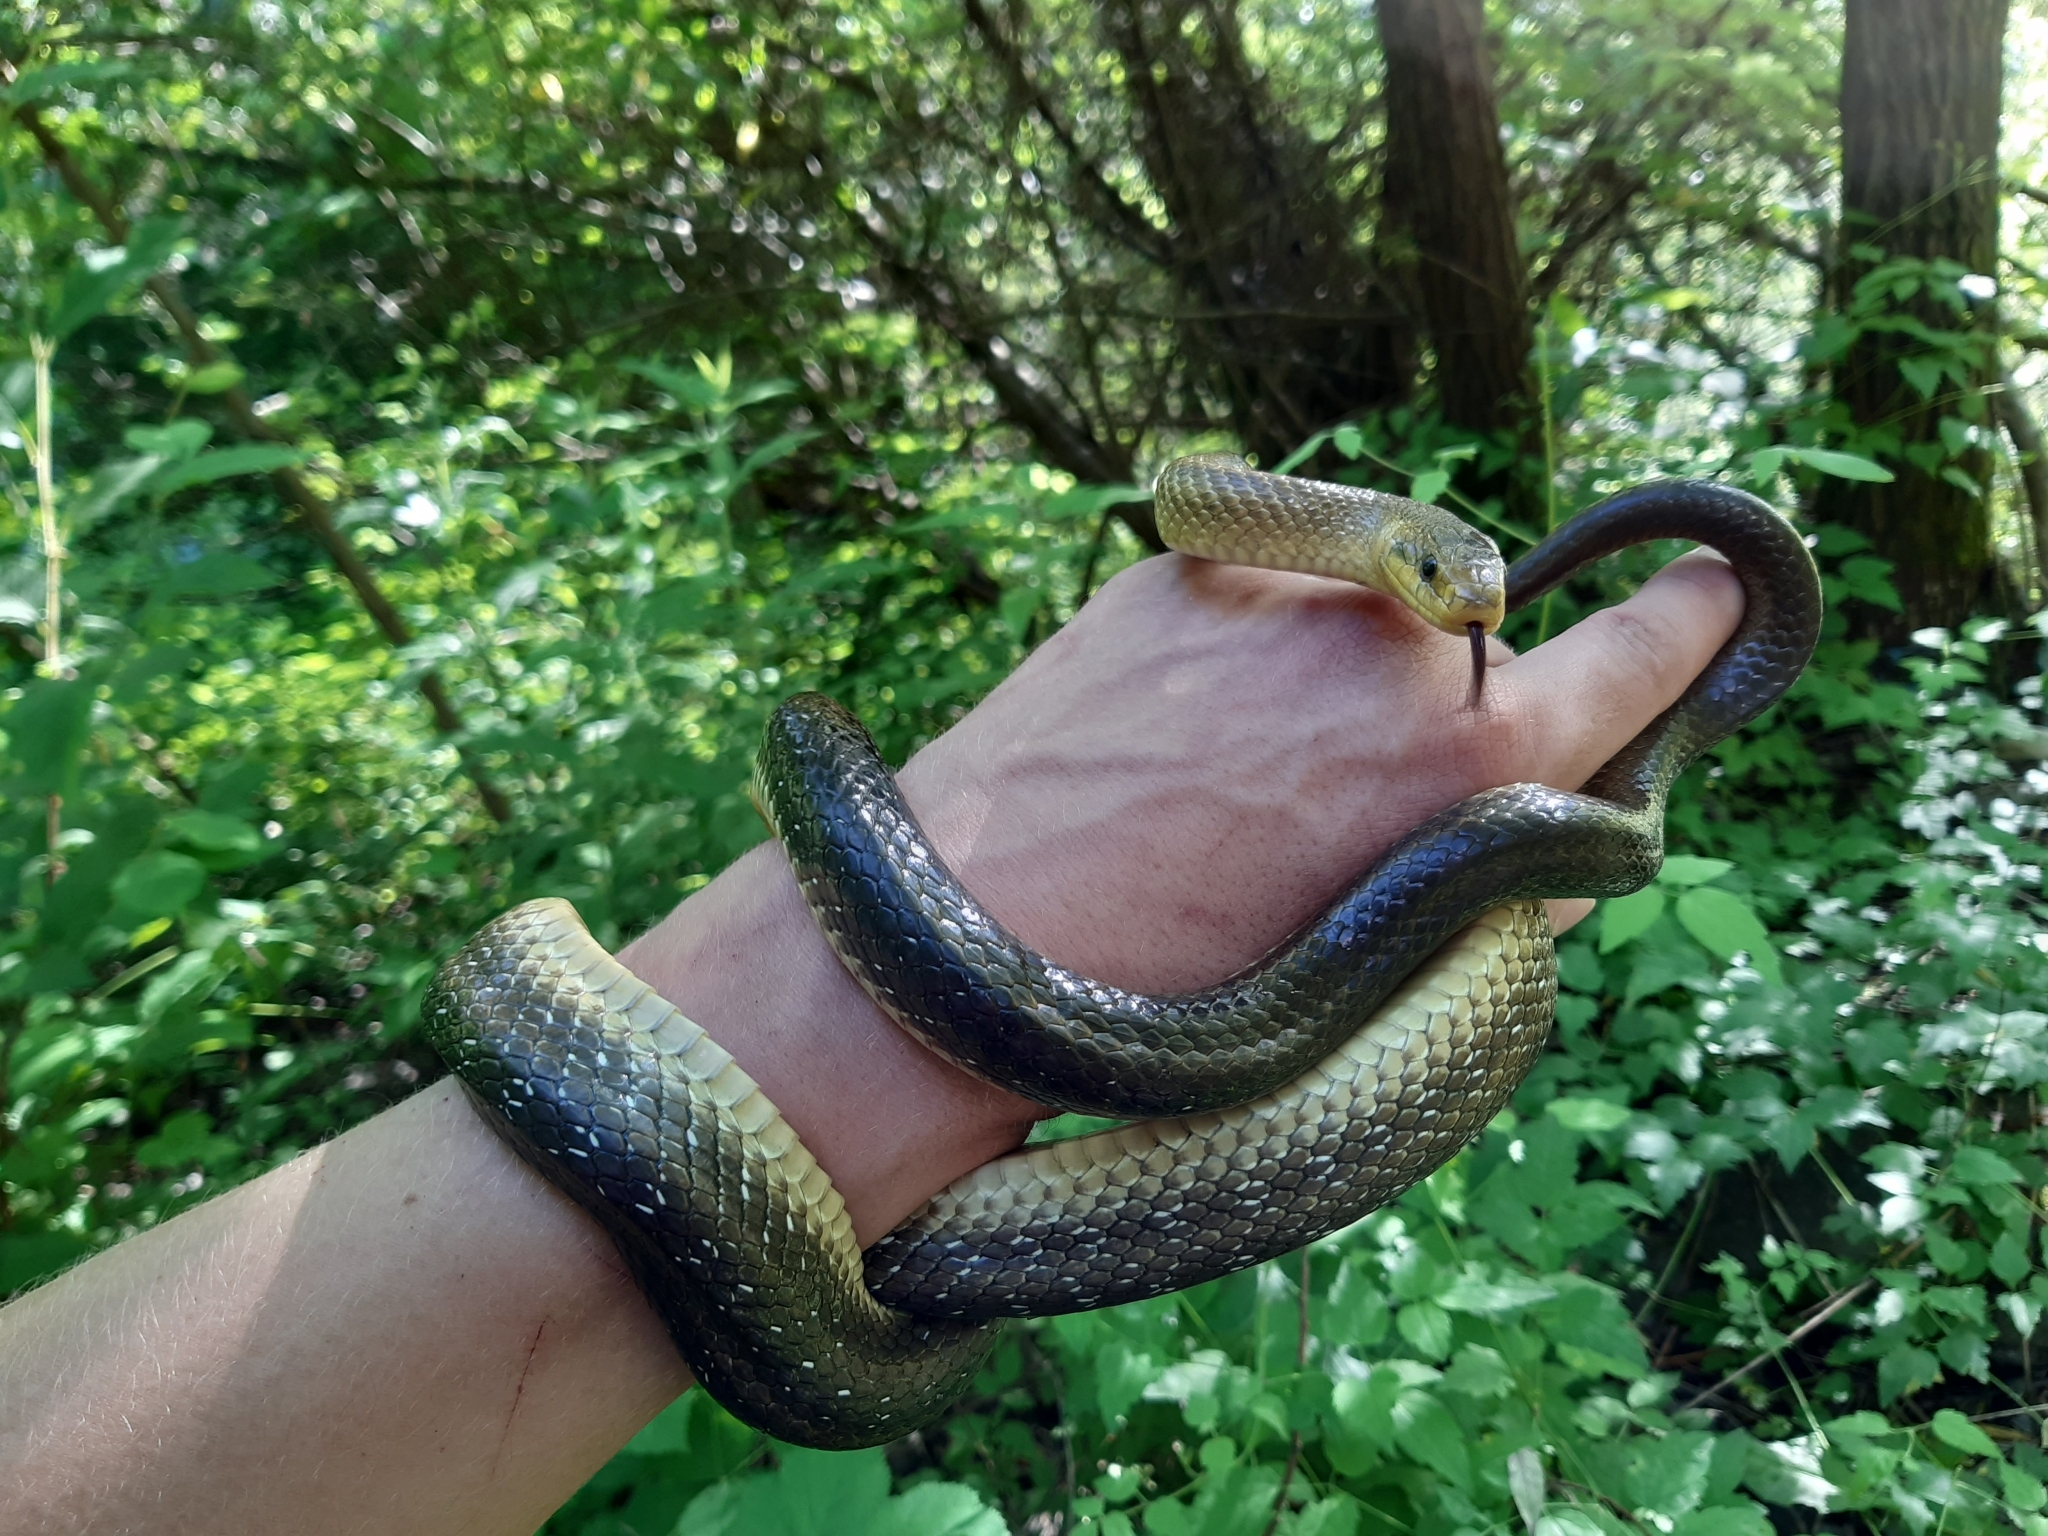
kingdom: Animalia
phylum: Chordata
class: Squamata
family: Colubridae
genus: Zamenis
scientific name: Zamenis longissimus
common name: Aesculapean snake
